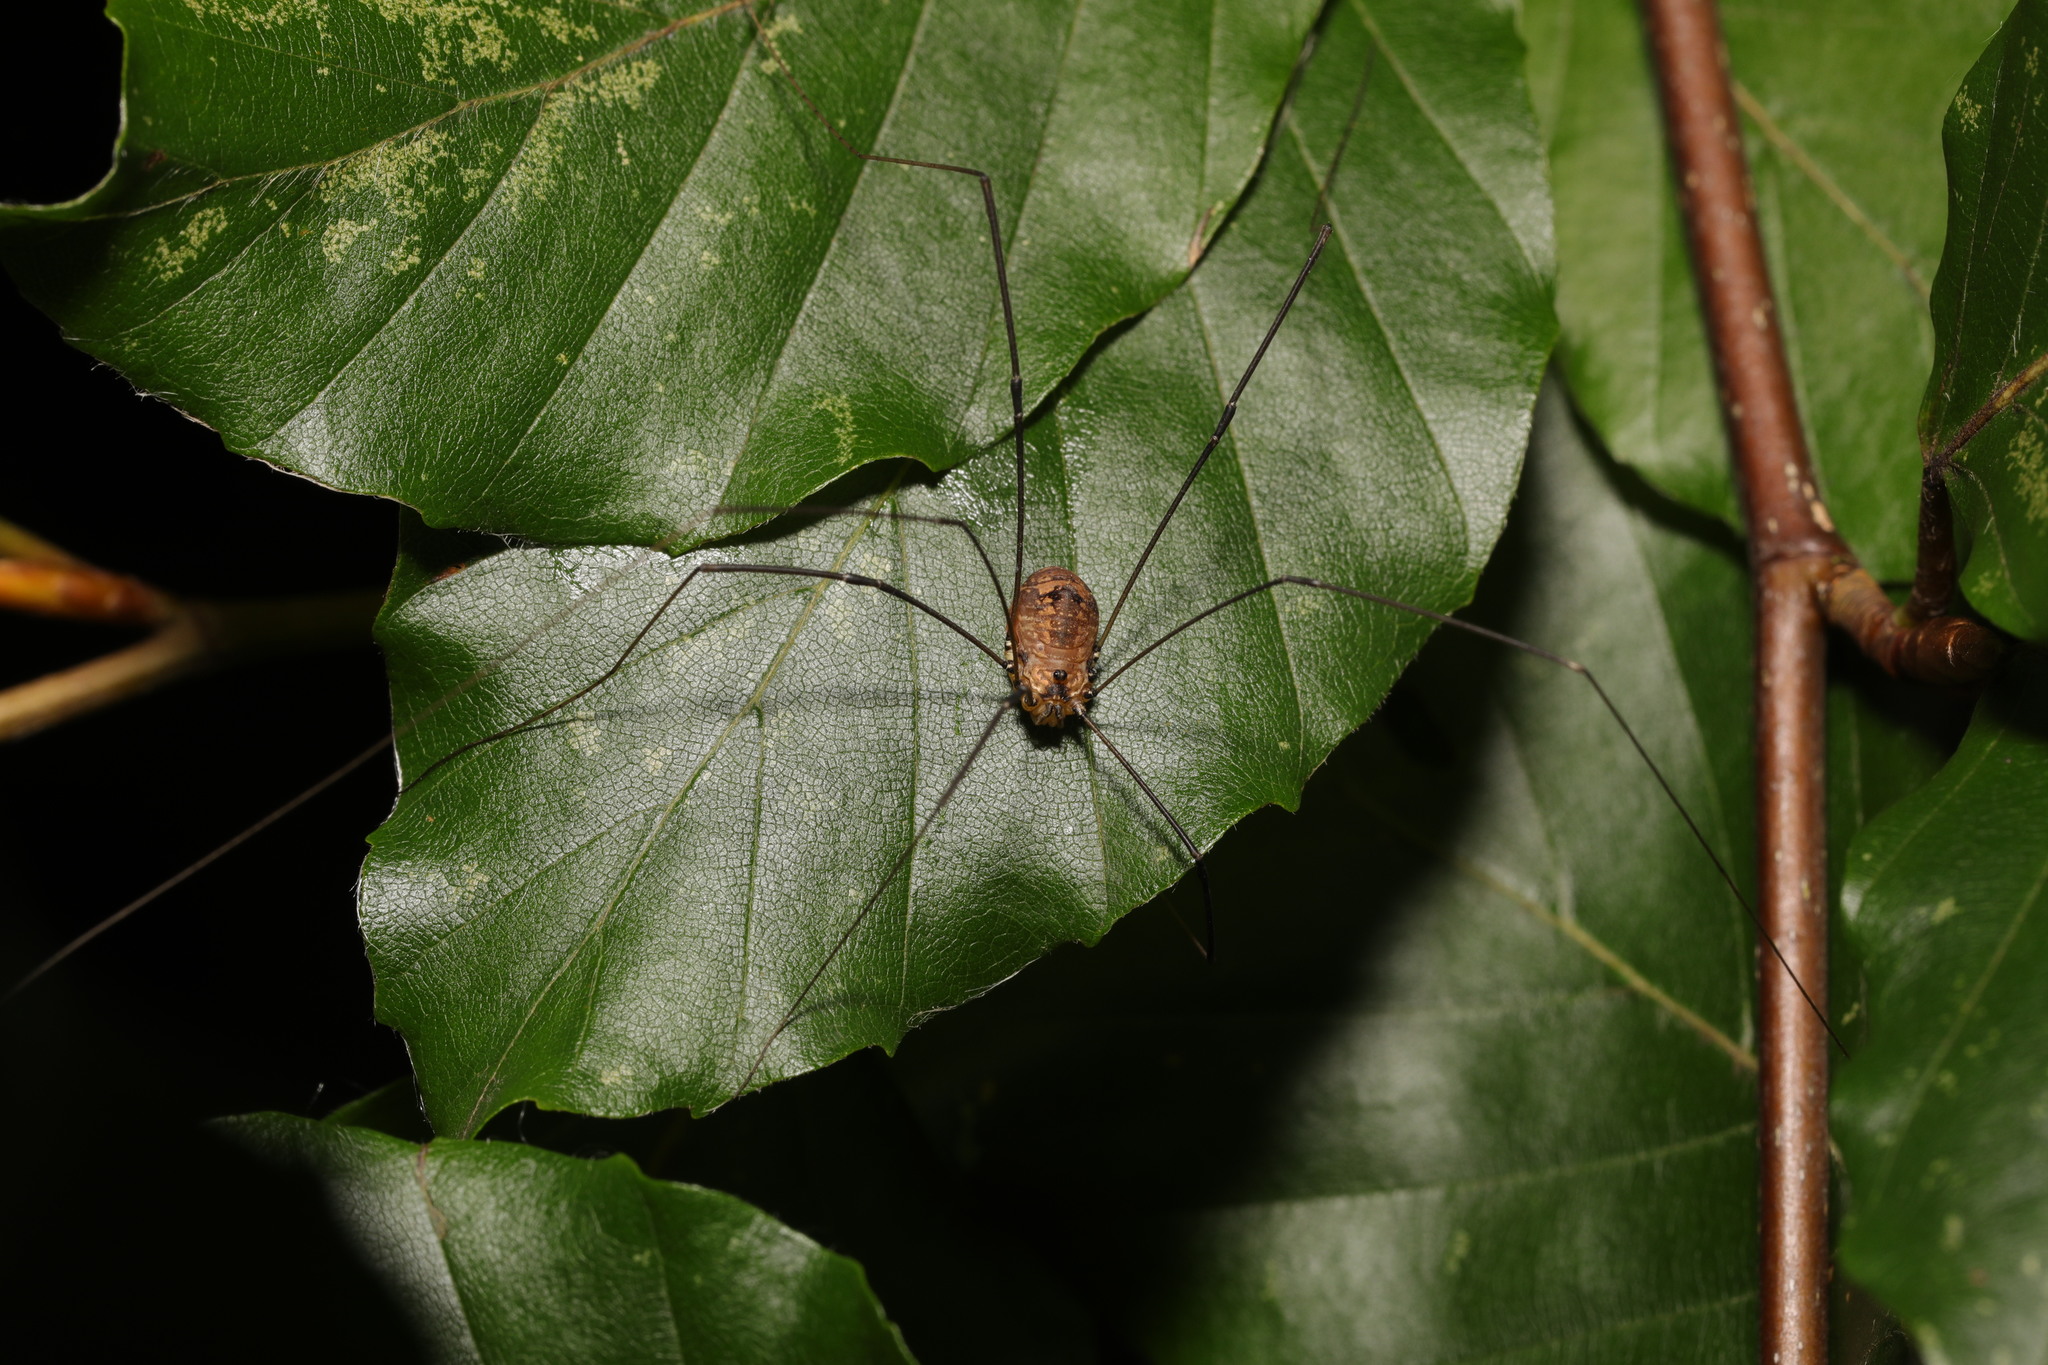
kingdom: Animalia
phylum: Arthropoda
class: Arachnida
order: Opiliones
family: Sclerosomatidae
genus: Leiobunum
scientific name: Leiobunum rotundum
